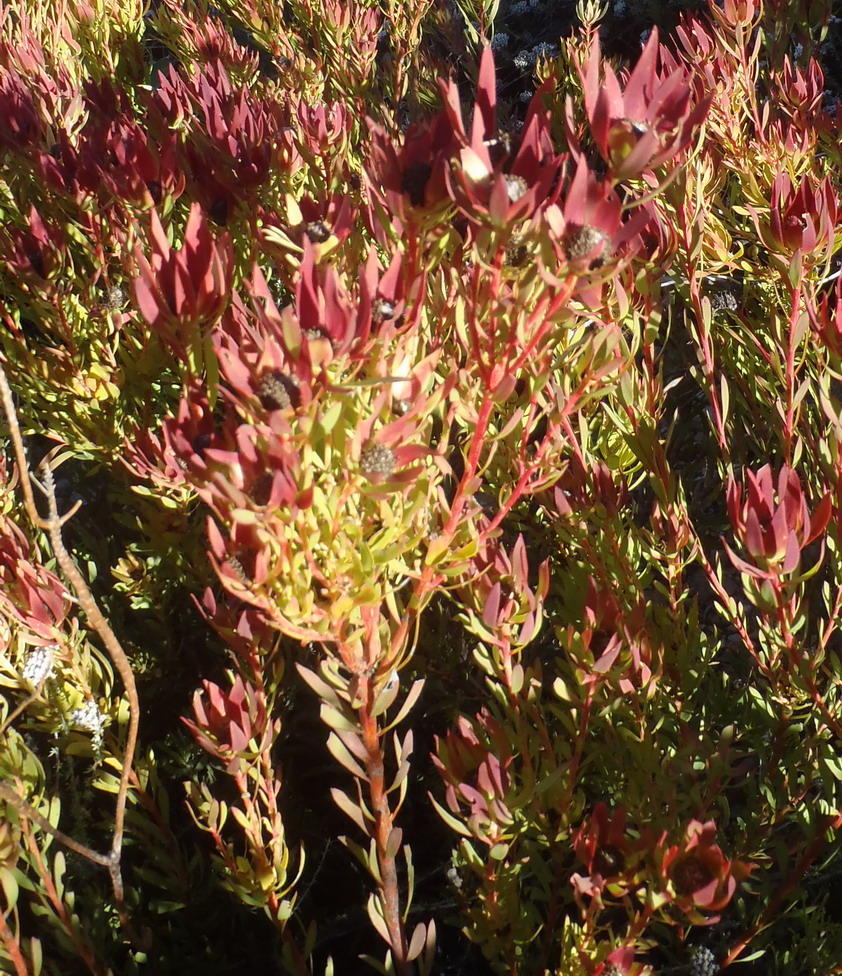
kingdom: Plantae
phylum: Tracheophyta
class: Magnoliopsida
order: Proteales
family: Proteaceae
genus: Leucadendron
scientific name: Leucadendron salignum
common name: Common sunshine conebush
